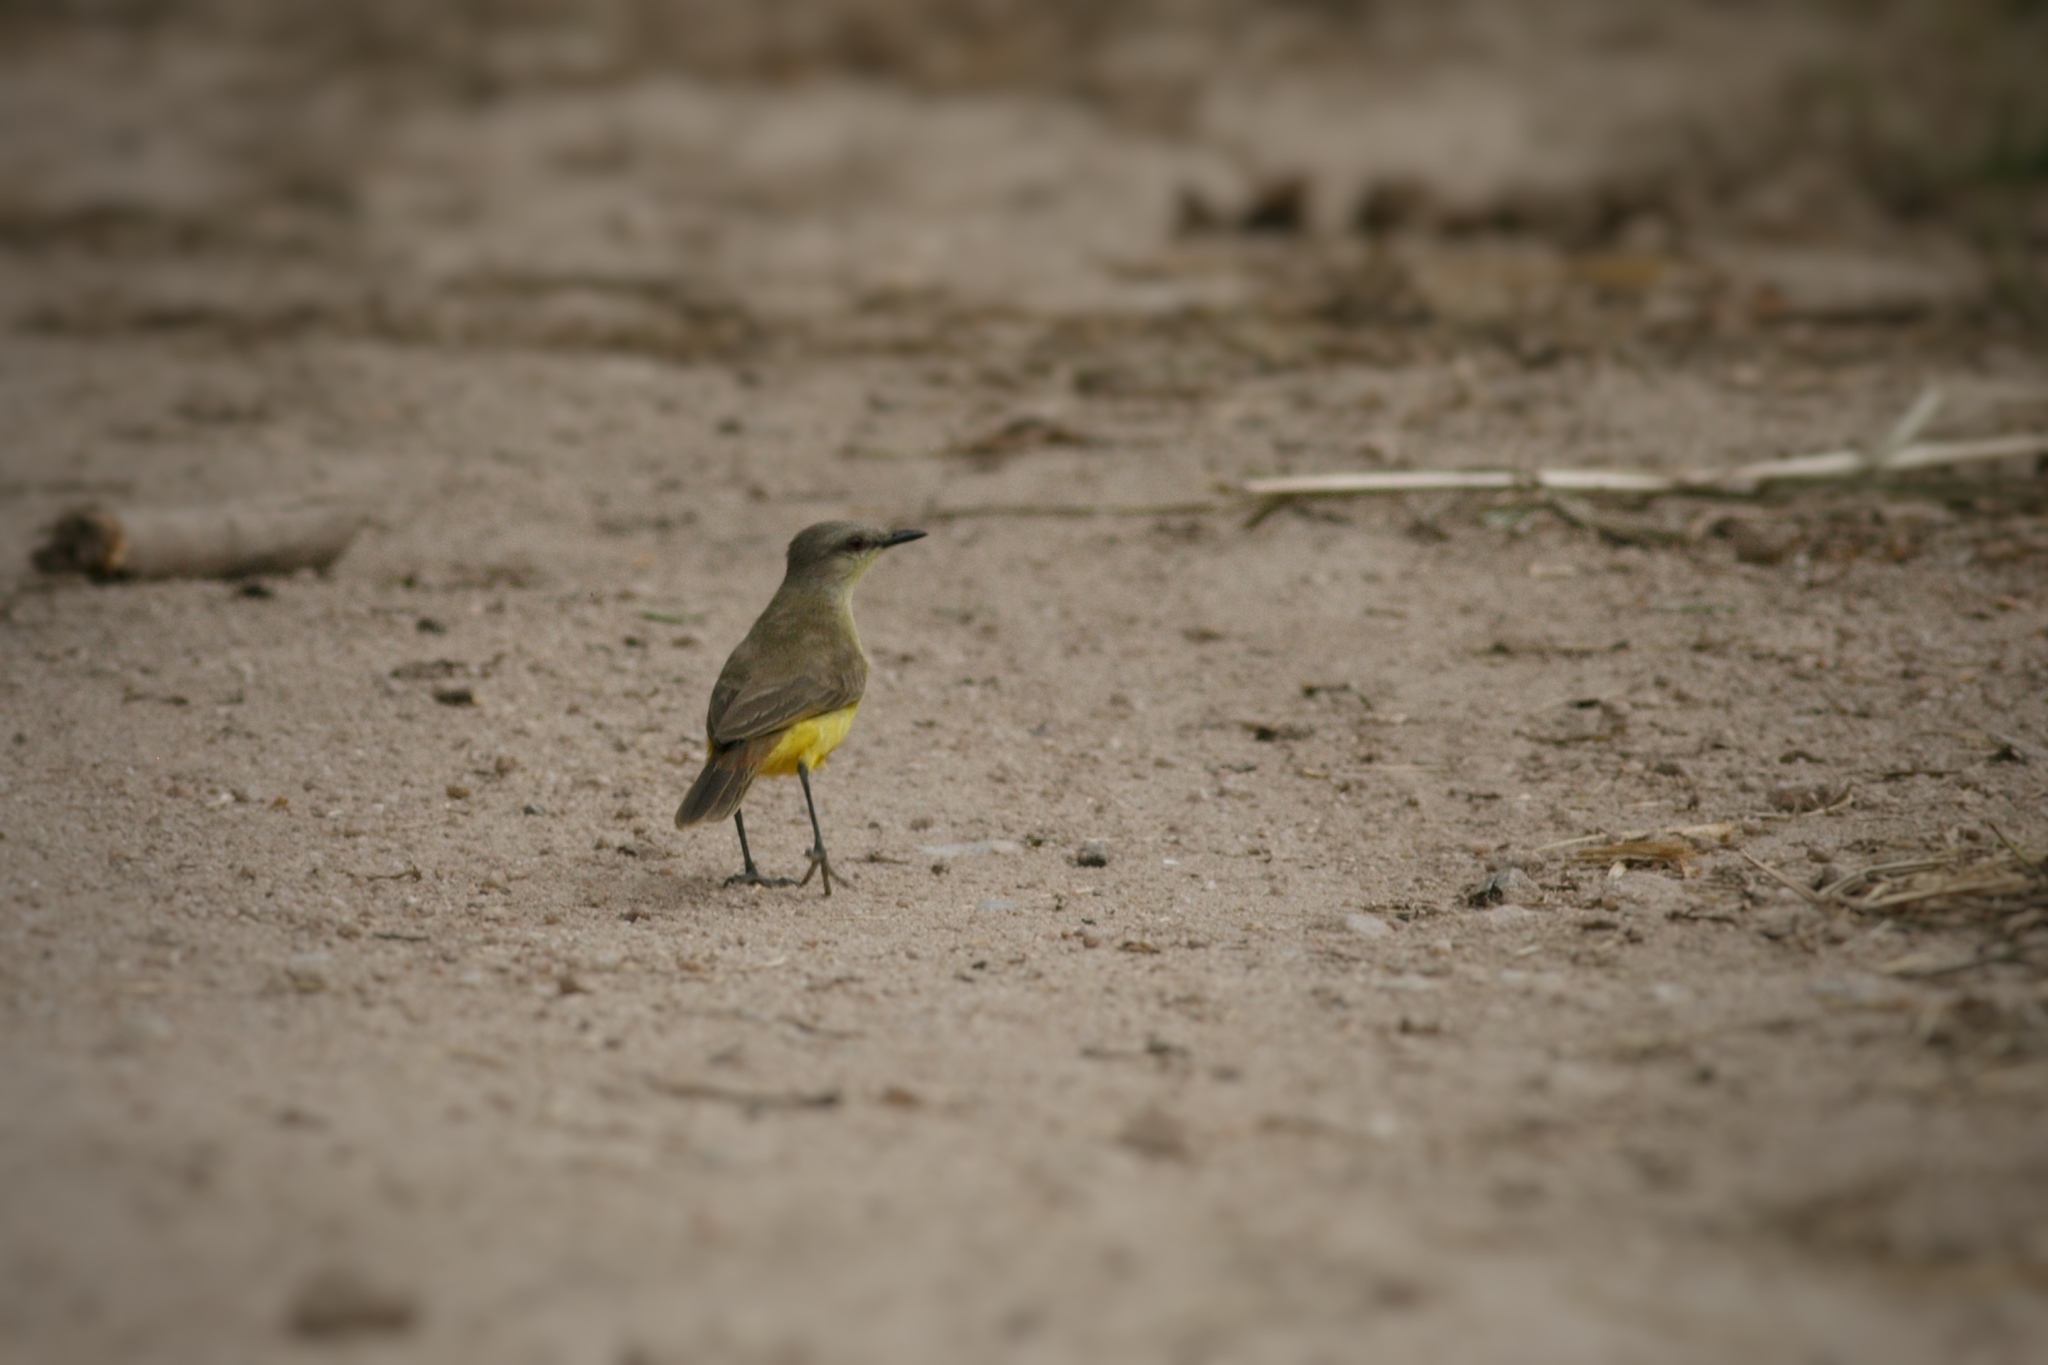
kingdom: Animalia
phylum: Chordata
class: Aves
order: Passeriformes
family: Tyrannidae
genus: Machetornis
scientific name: Machetornis rixosa
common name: Cattle tyrant
